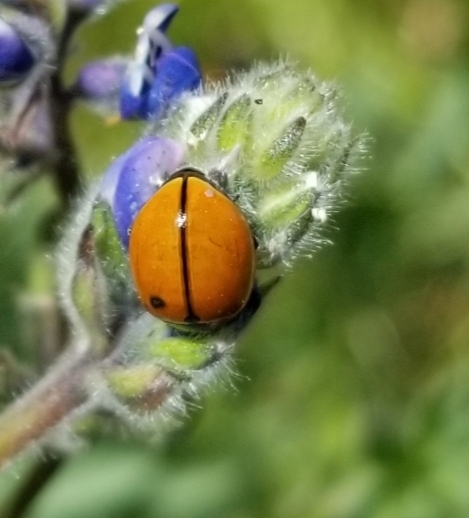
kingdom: Animalia
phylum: Arthropoda
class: Insecta
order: Coleoptera
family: Coccinellidae
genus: Coccinella
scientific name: Coccinella californica
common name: Lady beetle
